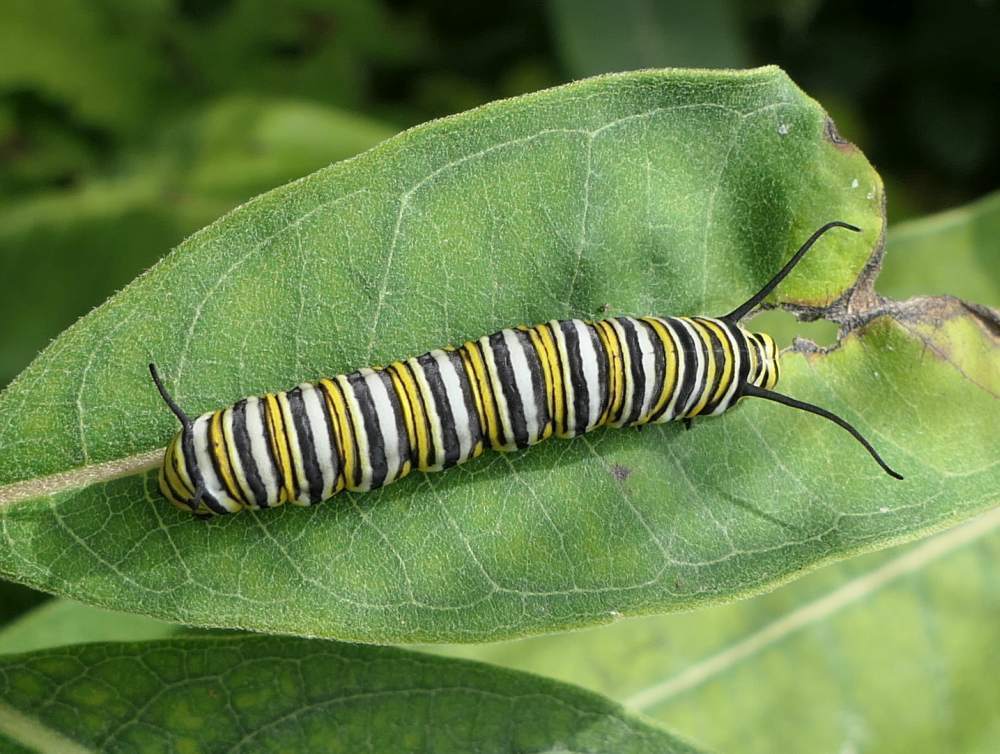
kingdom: Animalia
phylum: Arthropoda
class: Insecta
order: Lepidoptera
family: Nymphalidae
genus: Danaus
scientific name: Danaus plexippus
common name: Monarch
